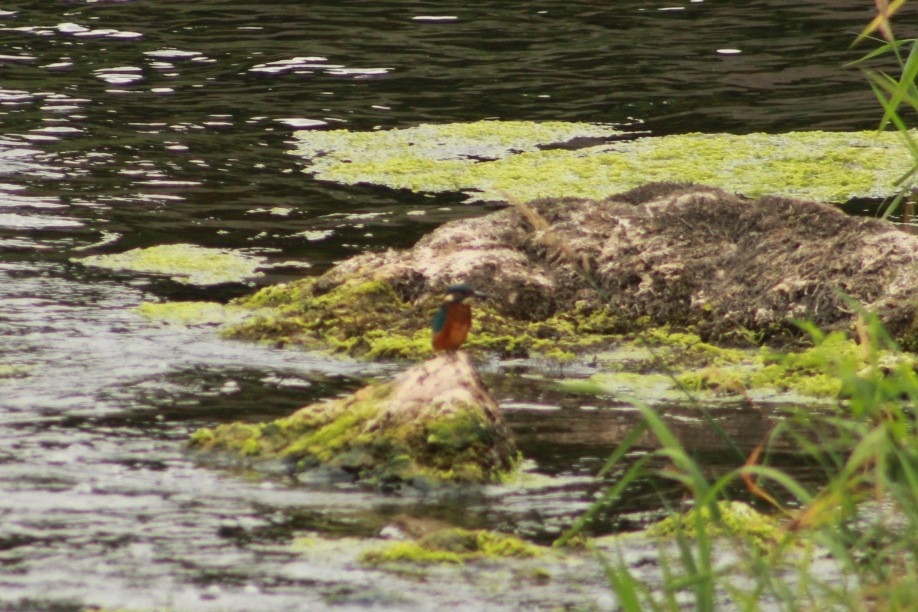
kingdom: Animalia
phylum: Chordata
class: Aves
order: Coraciiformes
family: Alcedinidae
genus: Alcedo
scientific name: Alcedo atthis
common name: Common kingfisher
